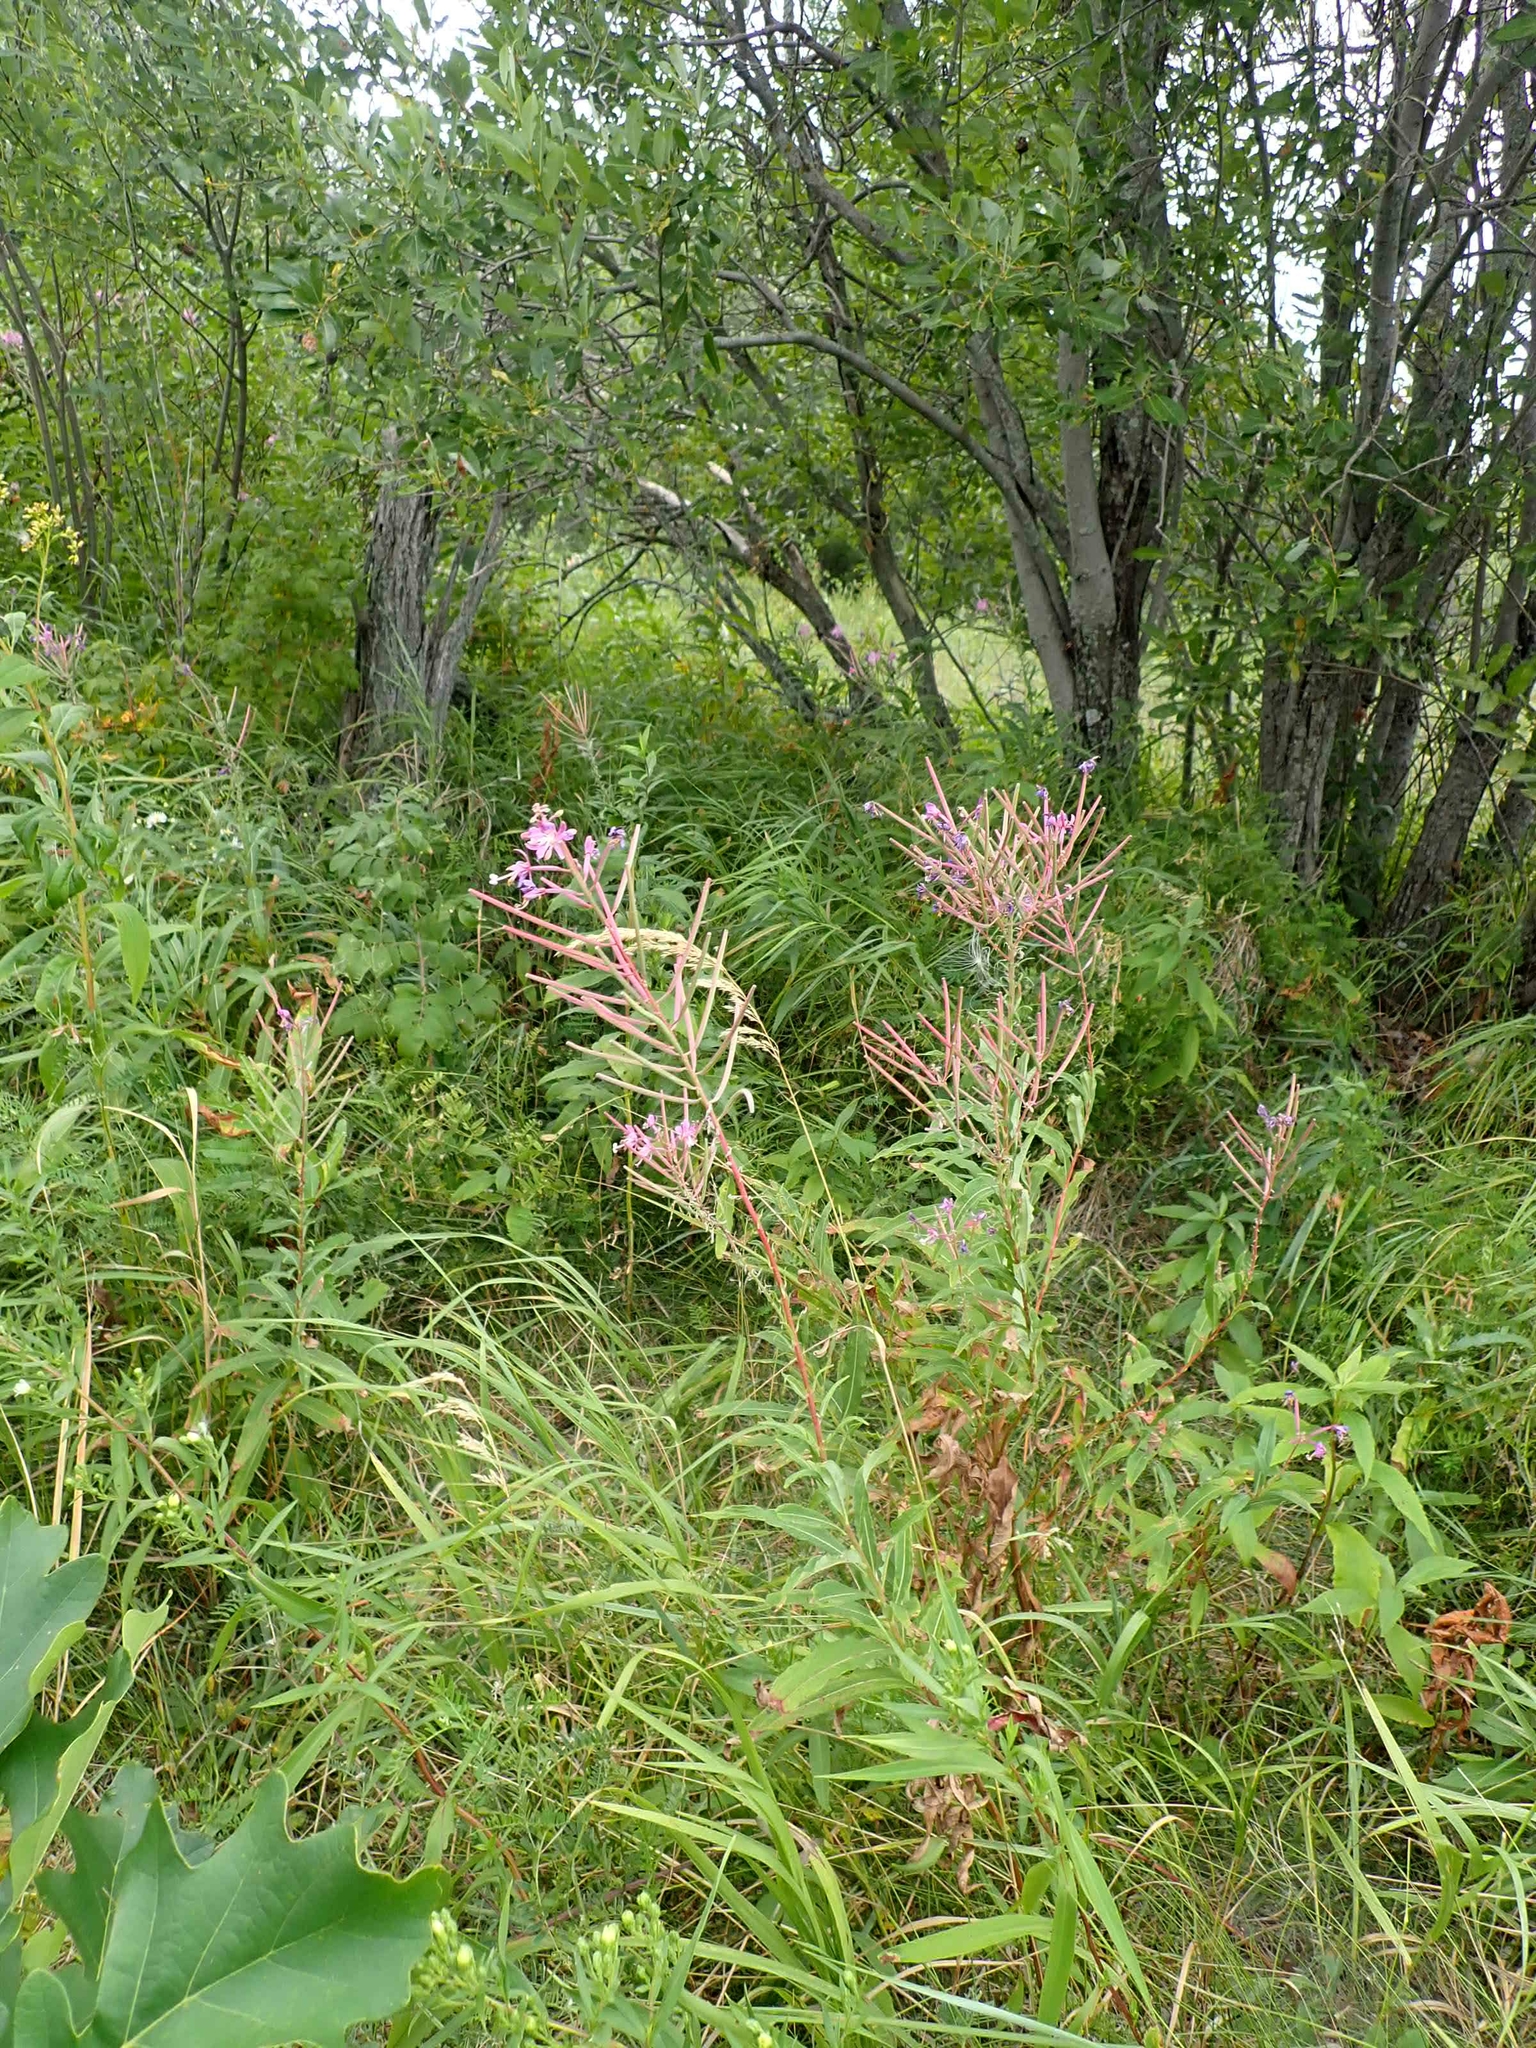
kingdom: Plantae
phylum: Tracheophyta
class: Magnoliopsida
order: Myrtales
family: Onagraceae
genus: Chamaenerion
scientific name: Chamaenerion angustifolium
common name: Fireweed
